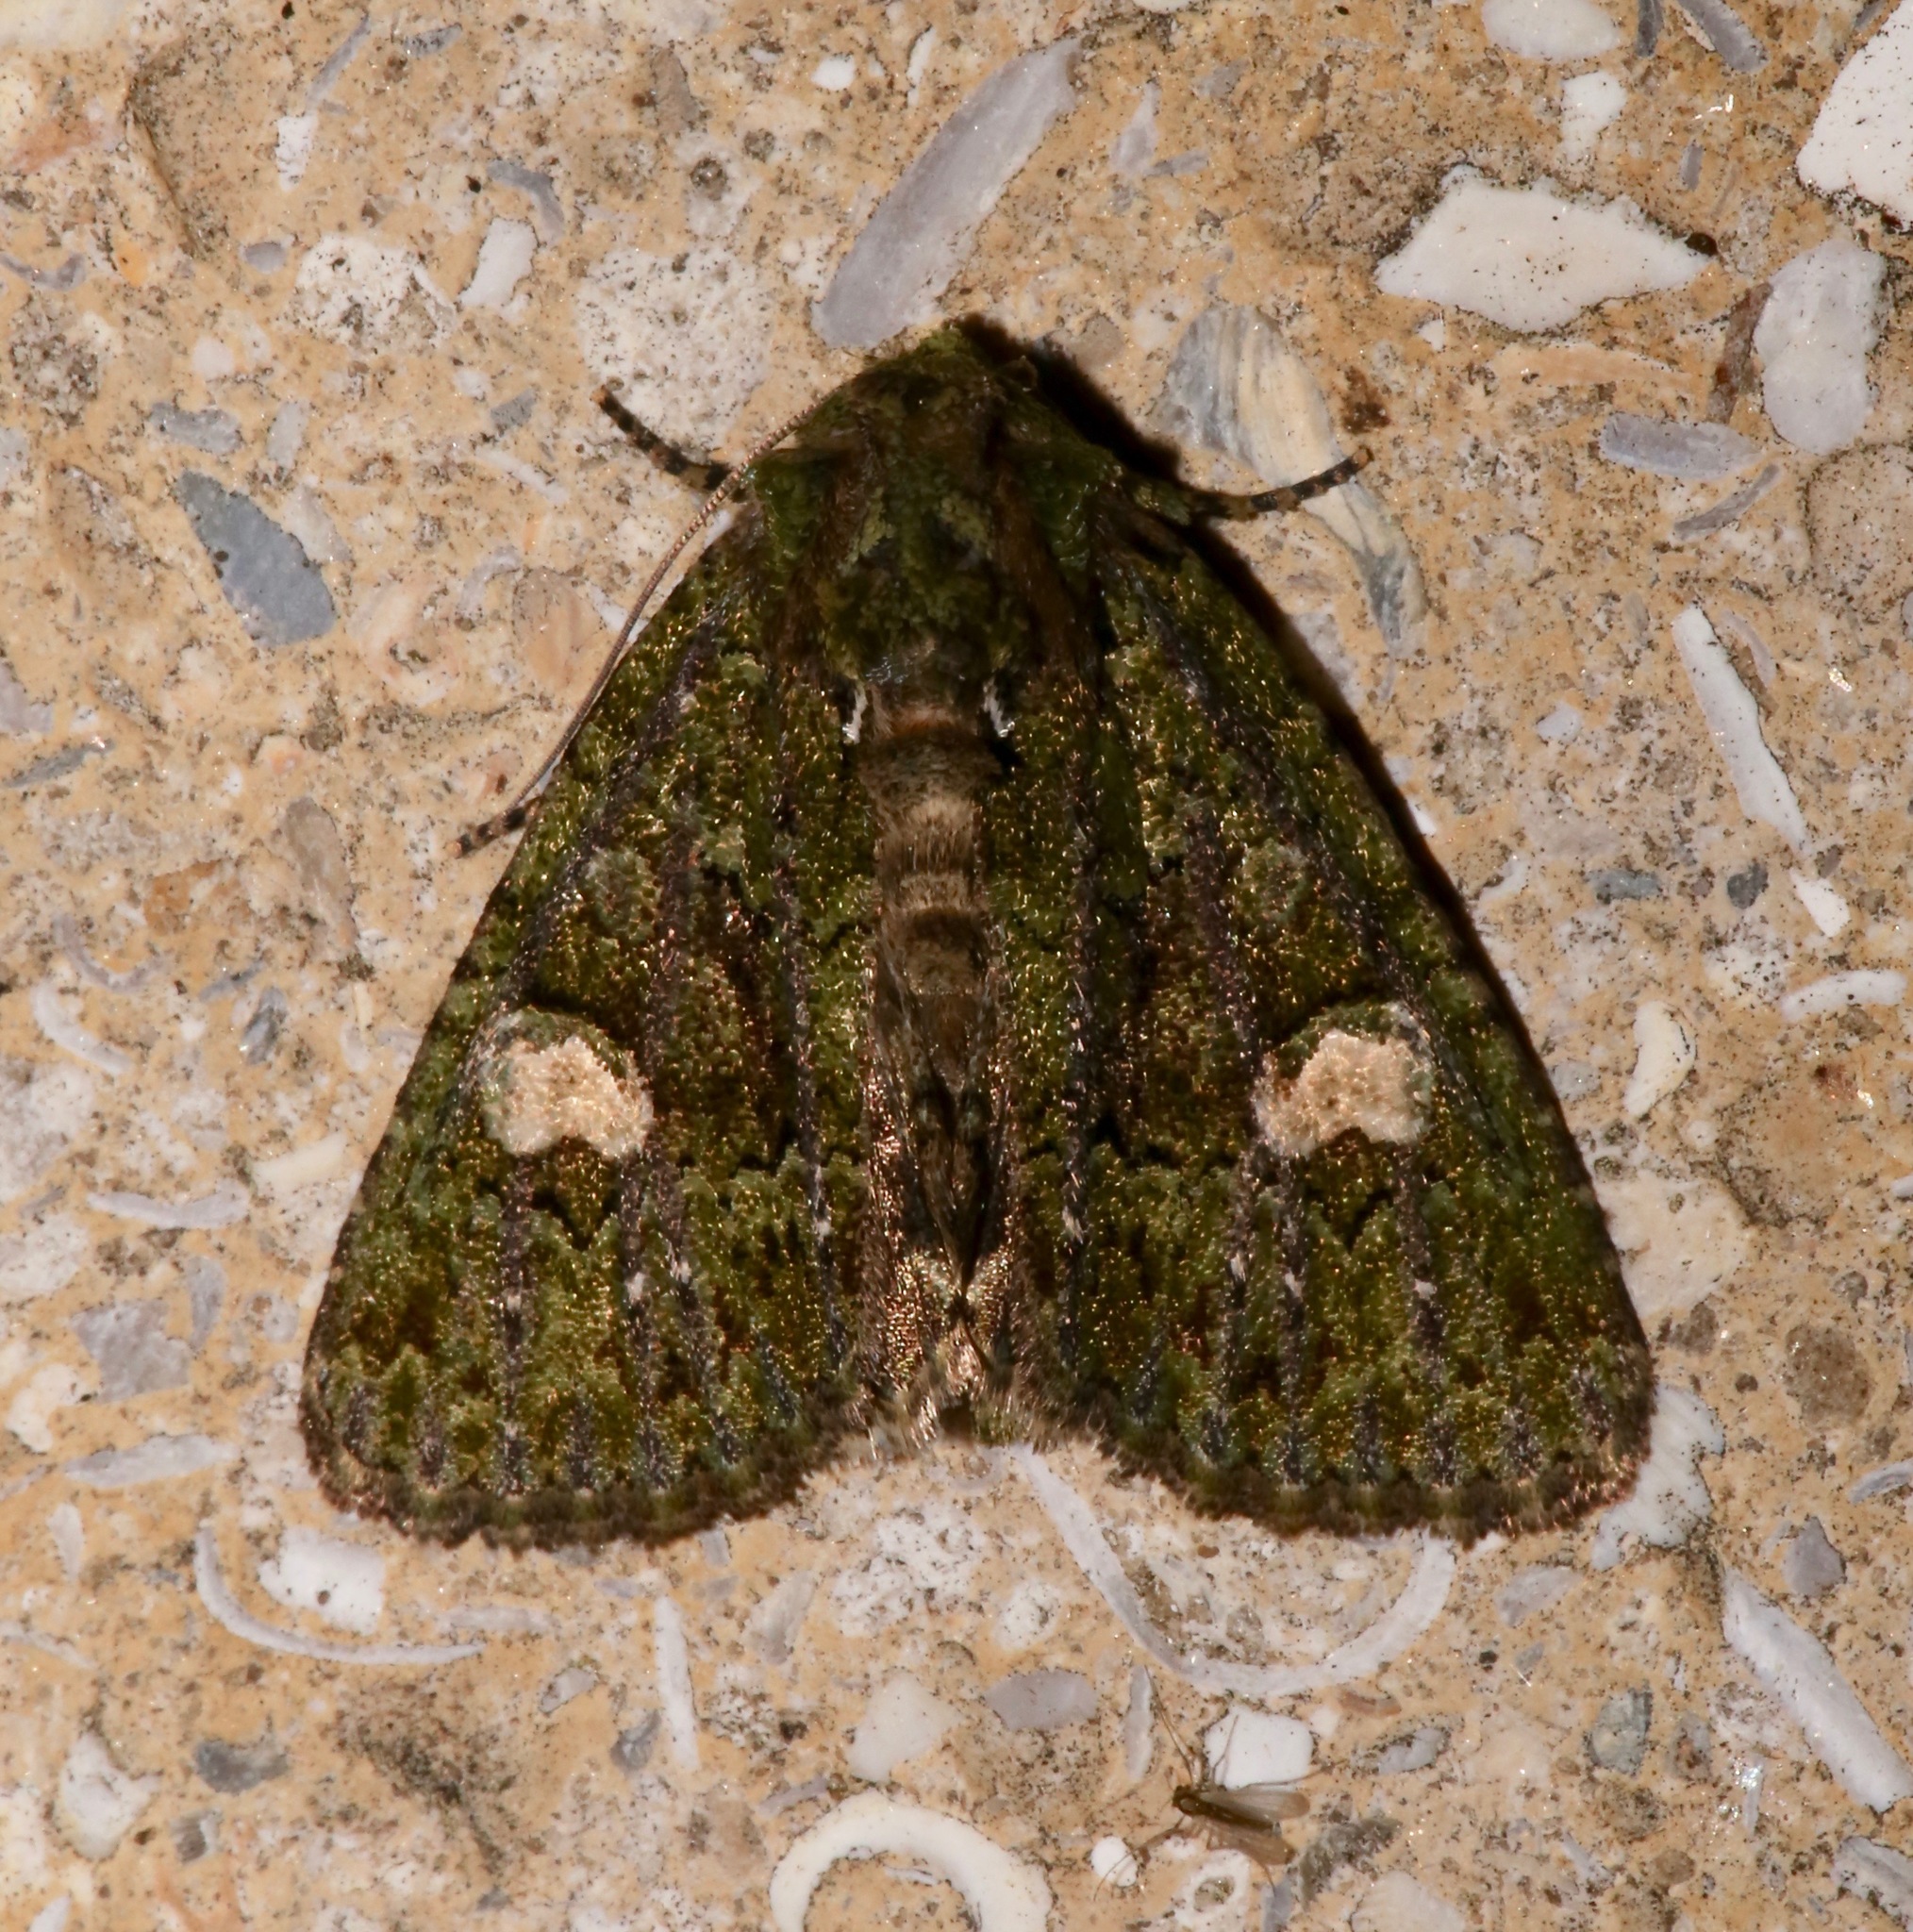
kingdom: Animalia
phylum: Arthropoda
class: Insecta
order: Lepidoptera
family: Noctuidae
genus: Phosphila
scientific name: Phosphila miselioides
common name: Spotted phosphila moth
